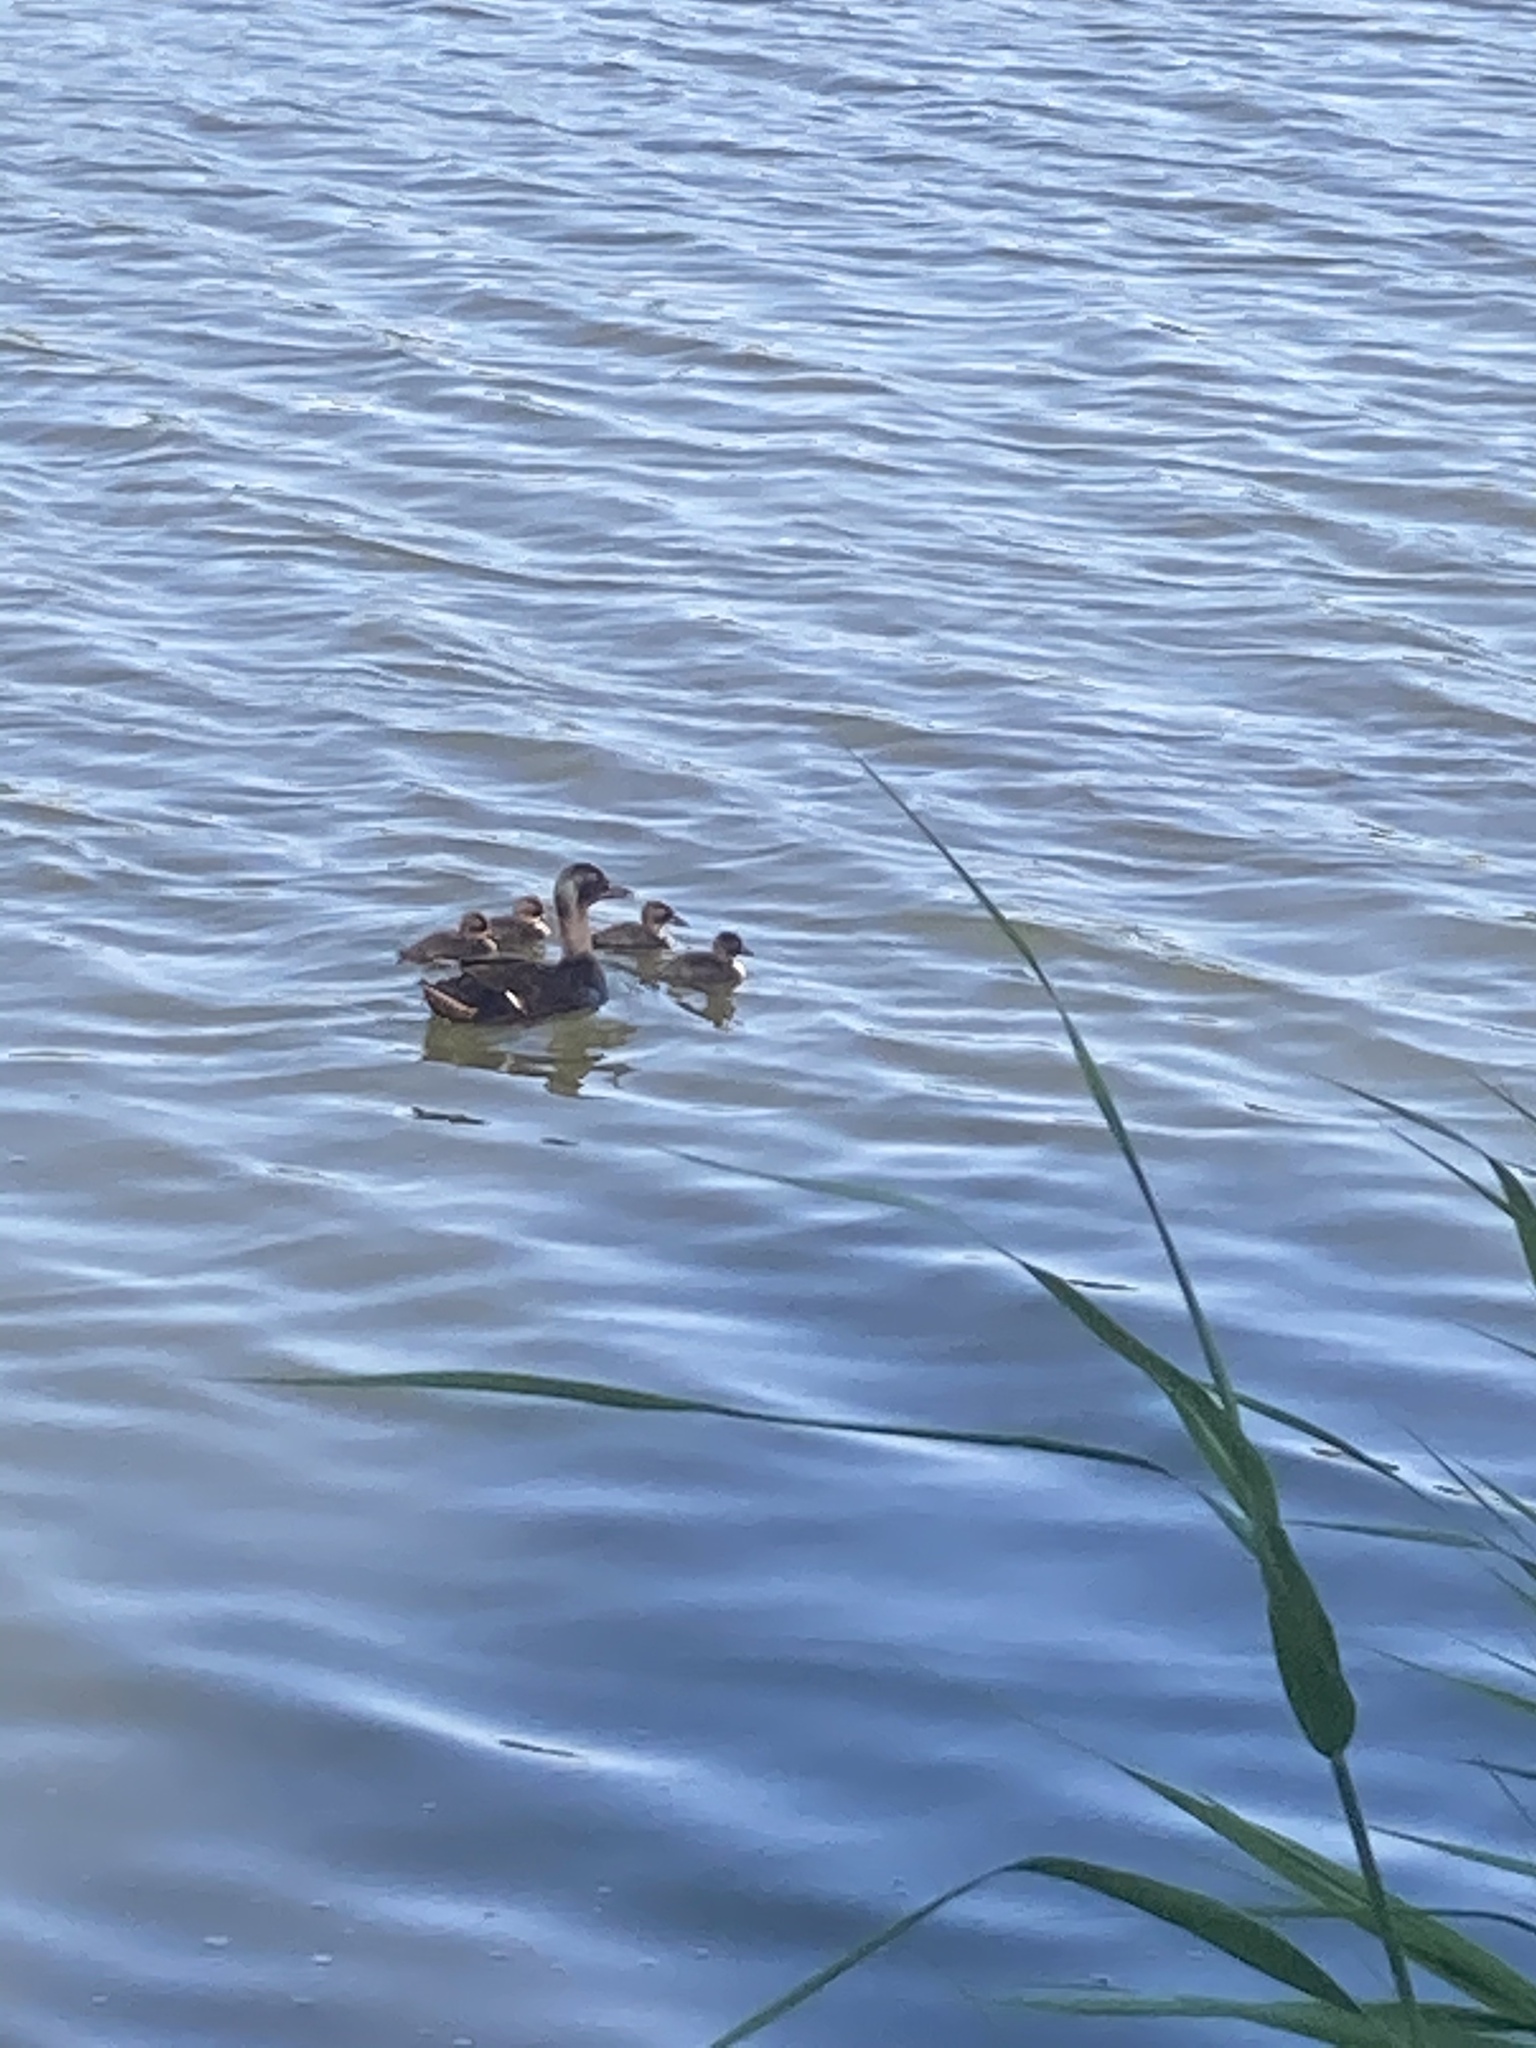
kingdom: Animalia
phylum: Chordata
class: Aves
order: Anseriformes
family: Anatidae
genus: Anas
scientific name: Anas platyrhynchos
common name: Mallard
